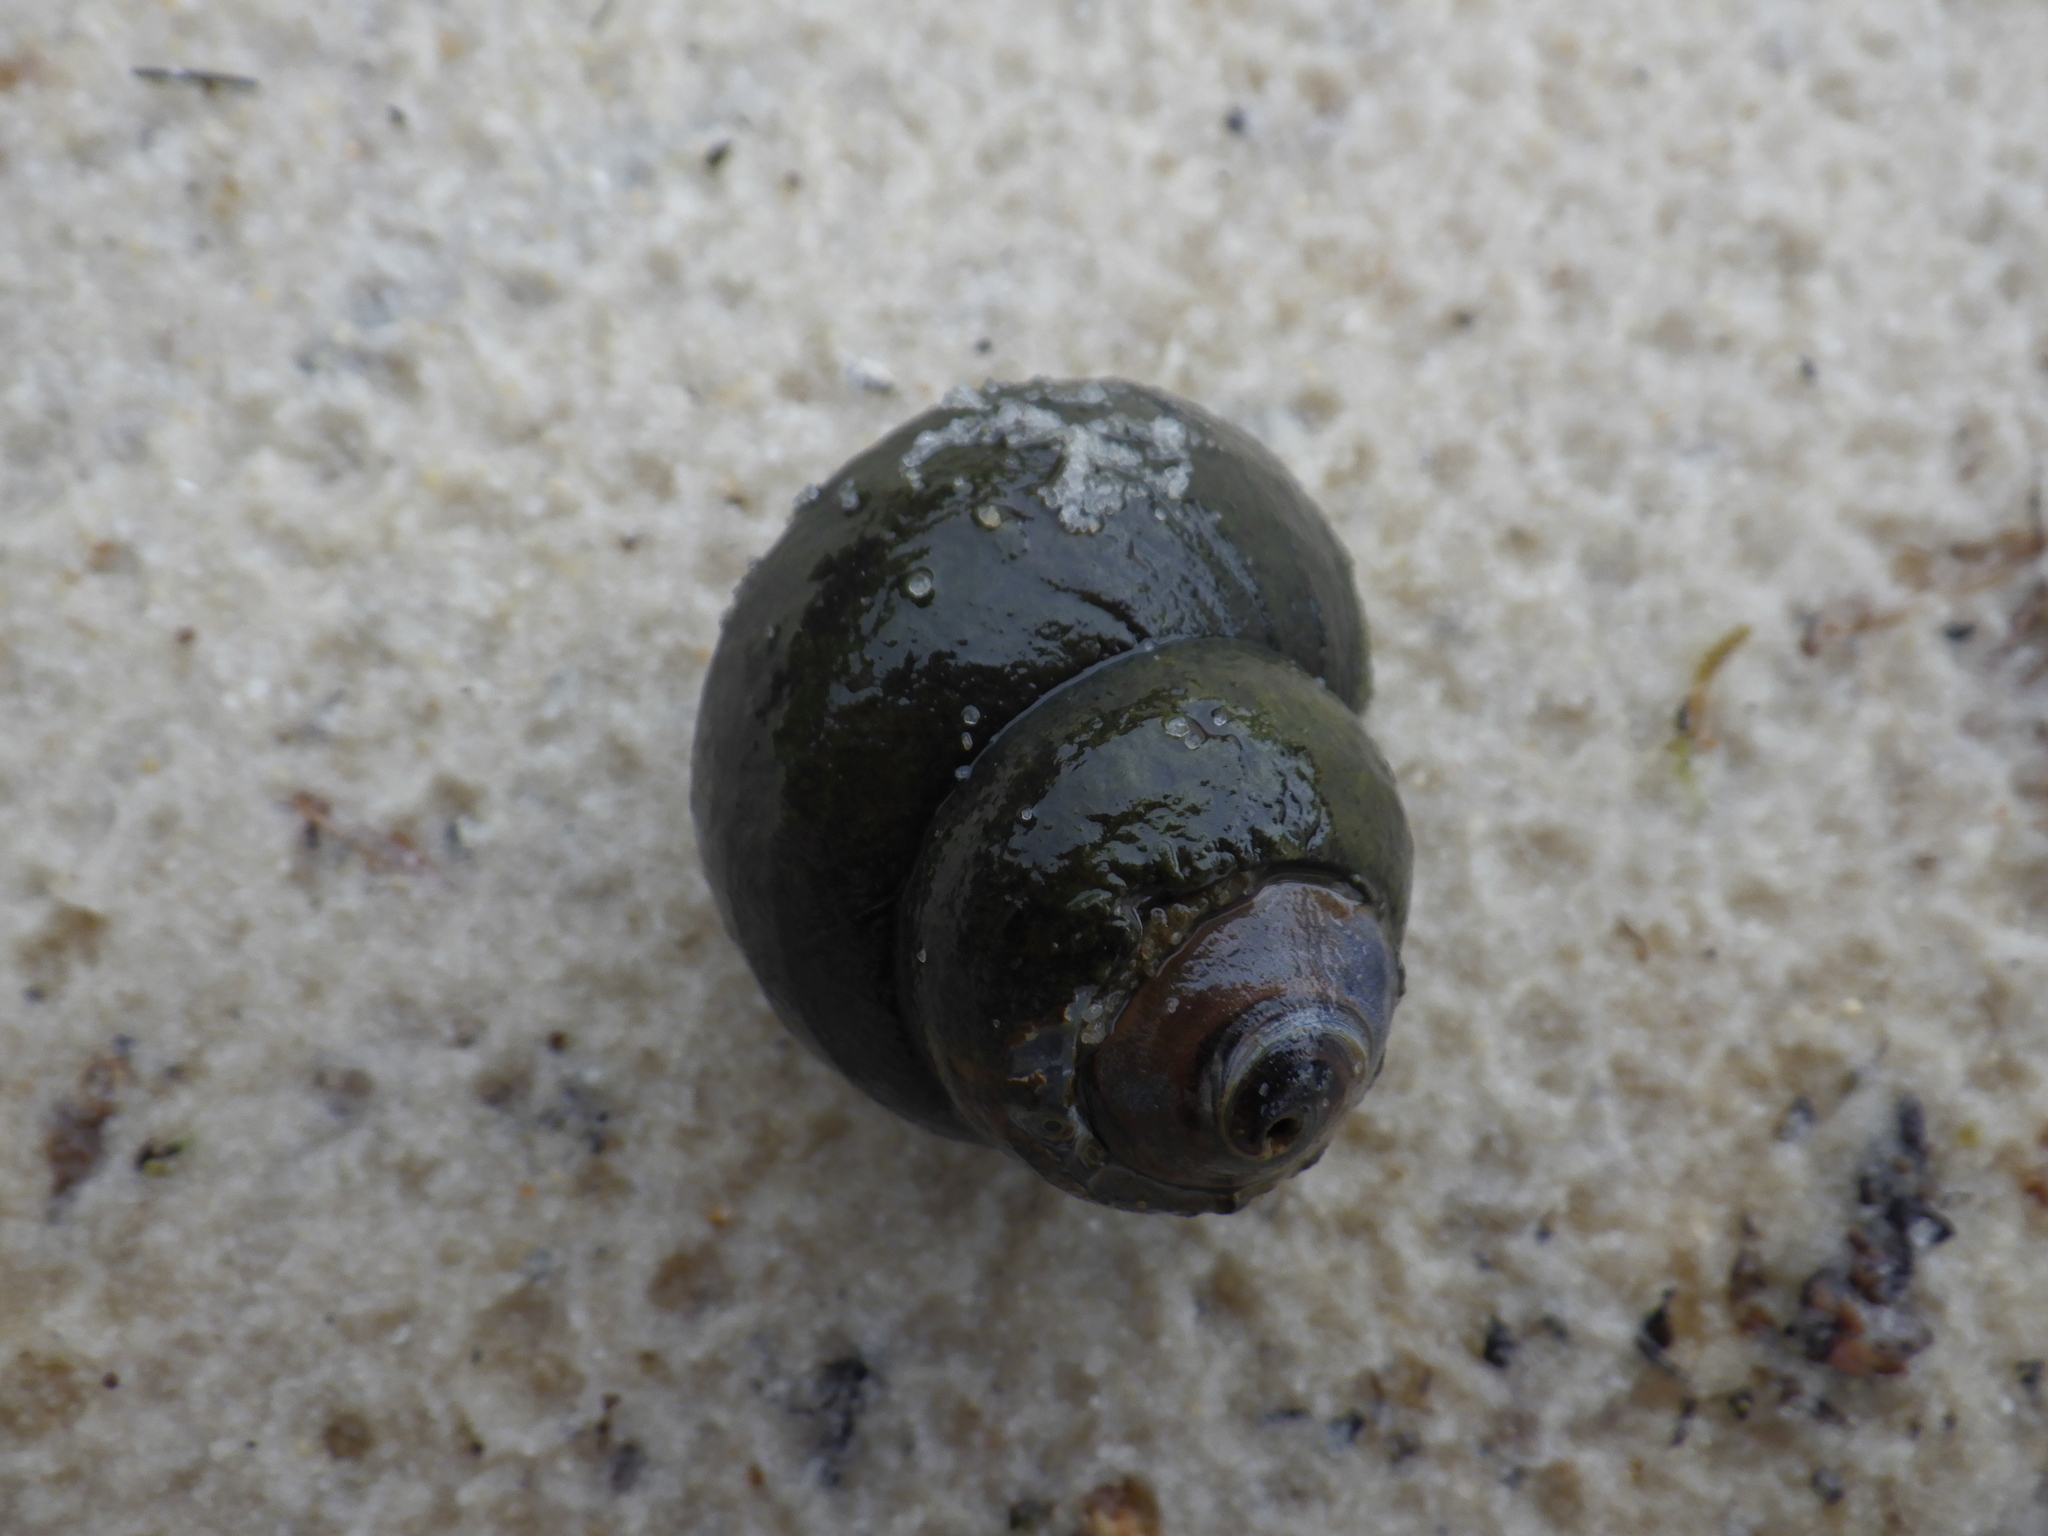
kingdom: Animalia
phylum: Mollusca
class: Gastropoda
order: Architaenioglossa
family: Viviparidae
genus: Cipangopaludina
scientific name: Cipangopaludina chinensis
